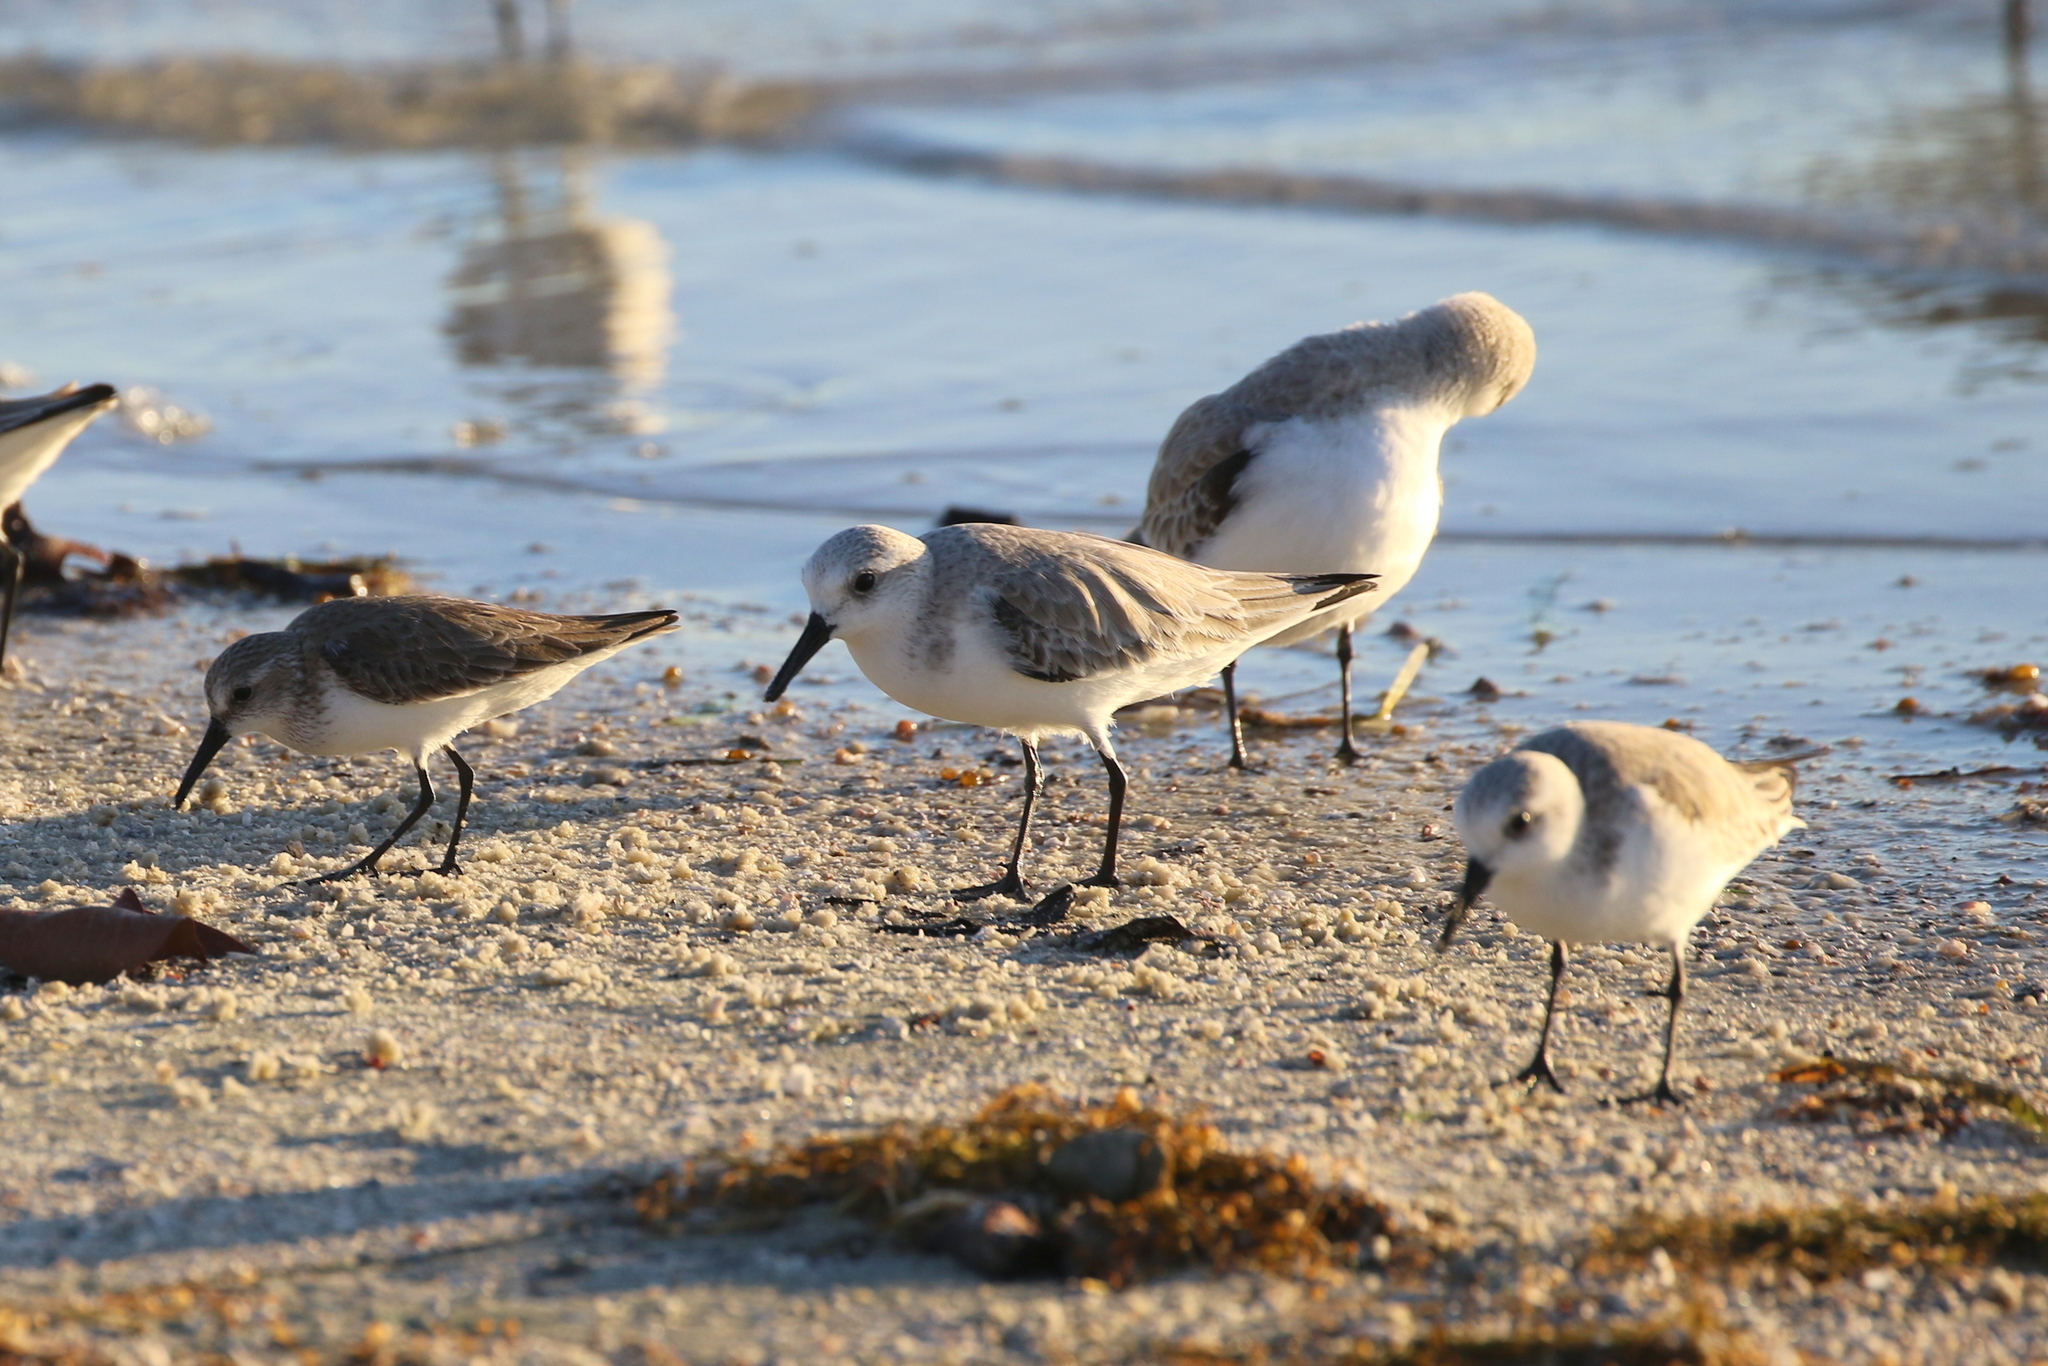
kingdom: Animalia
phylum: Chordata
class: Aves
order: Charadriiformes
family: Scolopacidae
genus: Calidris
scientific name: Calidris alba
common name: Sanderling
